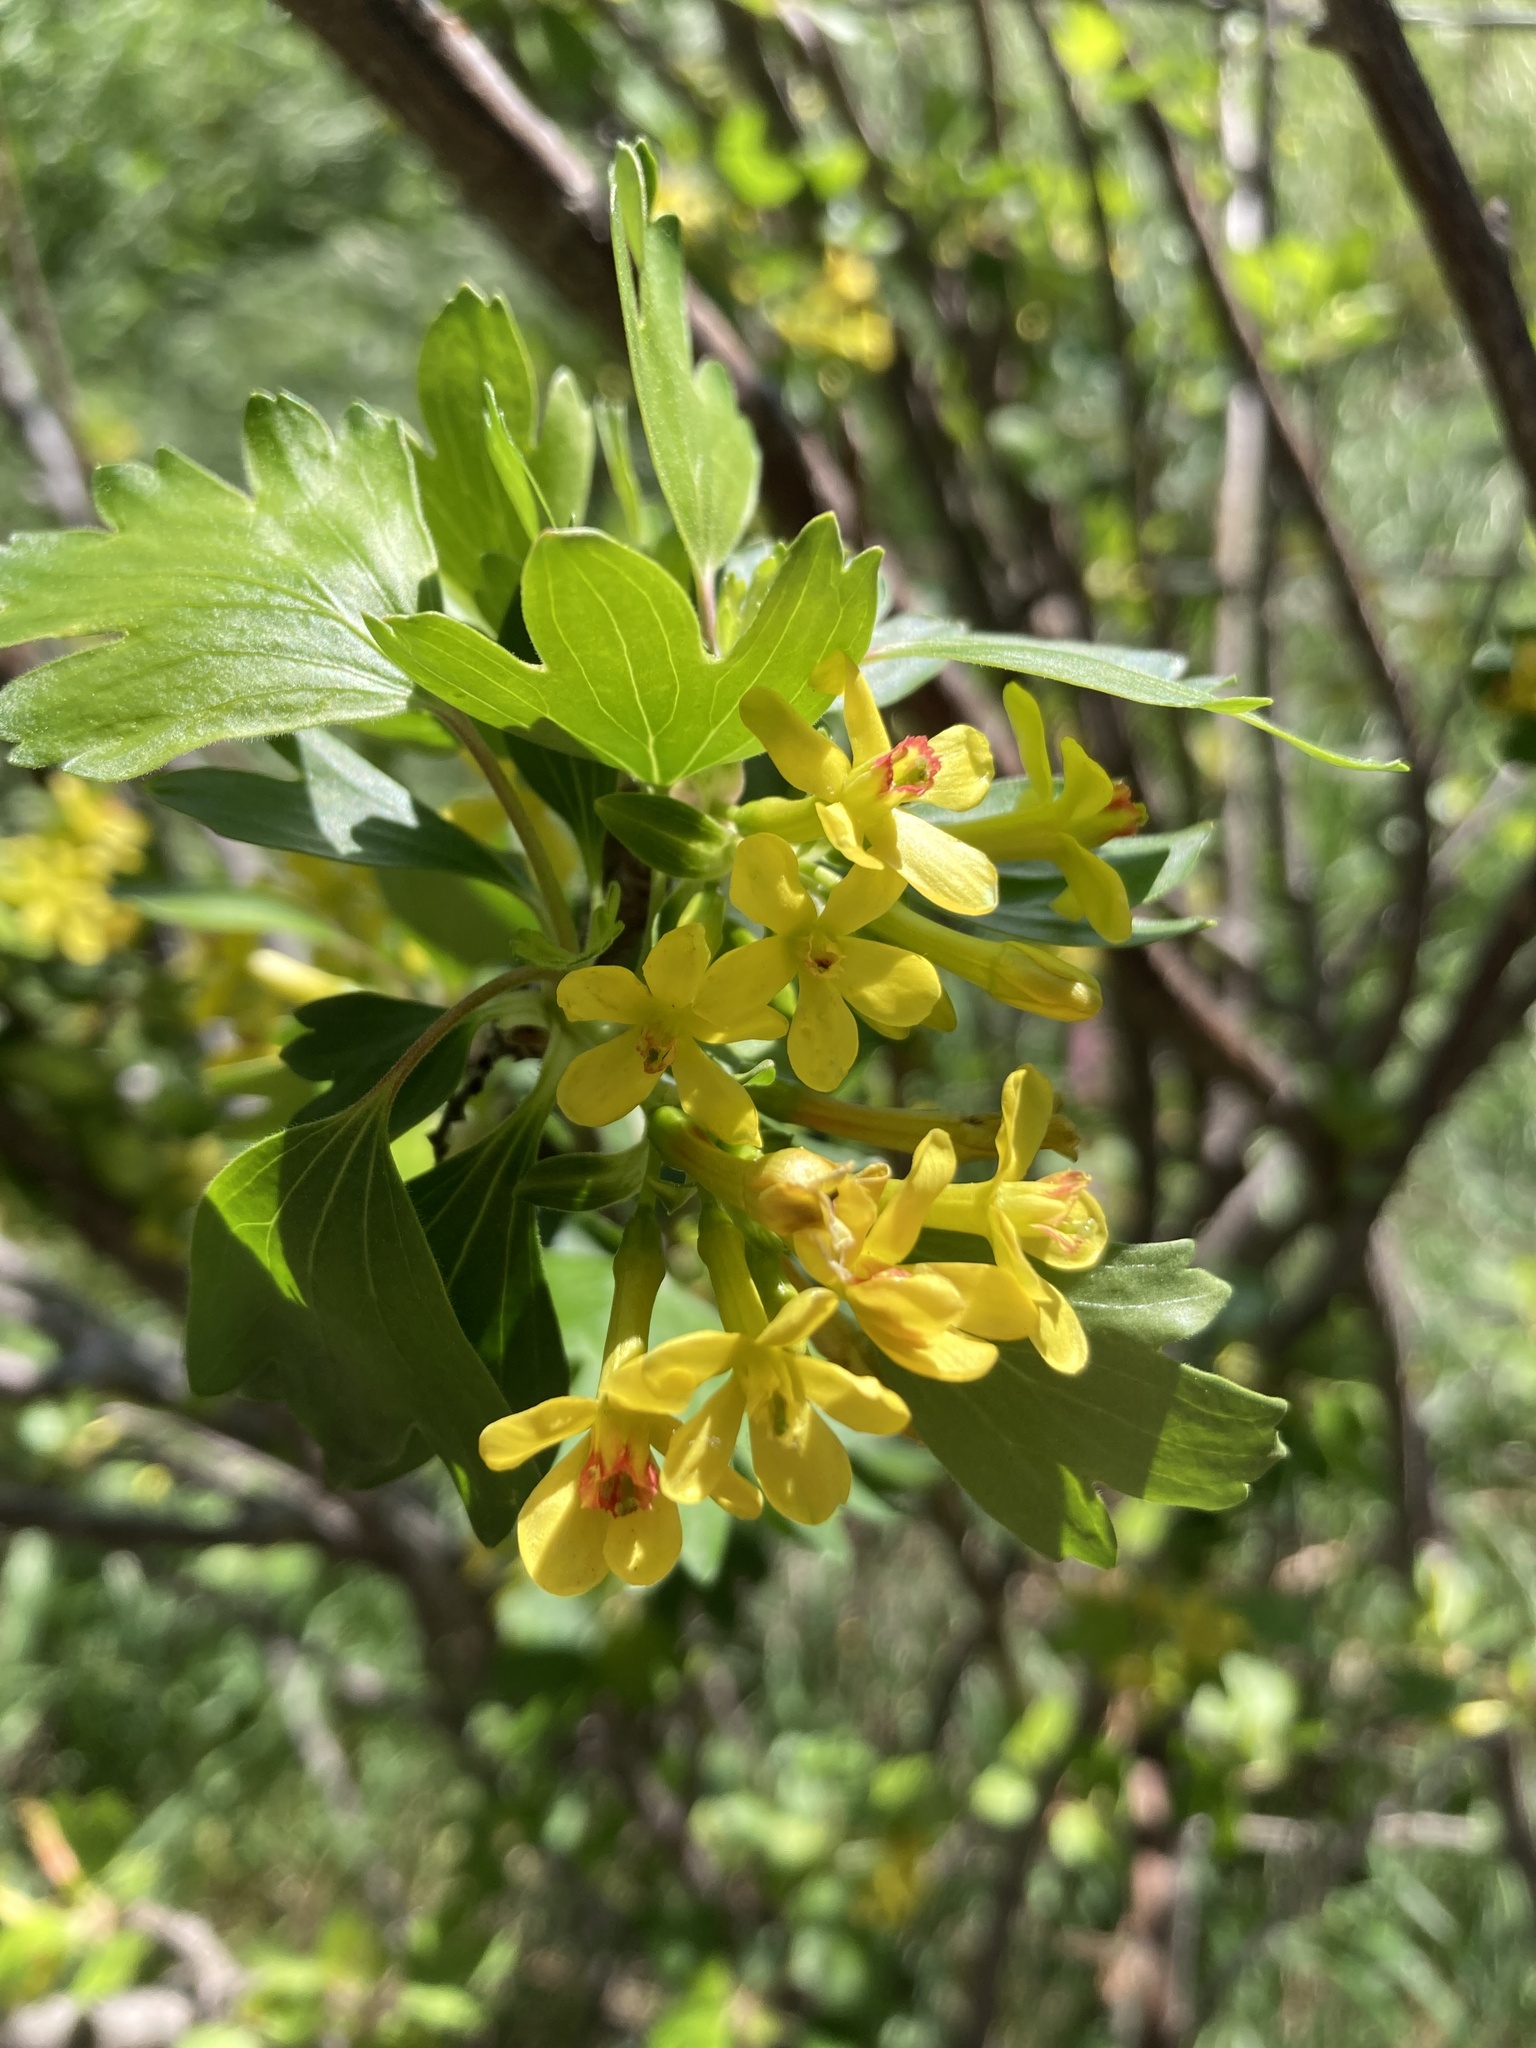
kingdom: Plantae
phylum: Tracheophyta
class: Magnoliopsida
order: Saxifragales
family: Grossulariaceae
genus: Ribes
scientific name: Ribes aureum
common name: Golden currant
